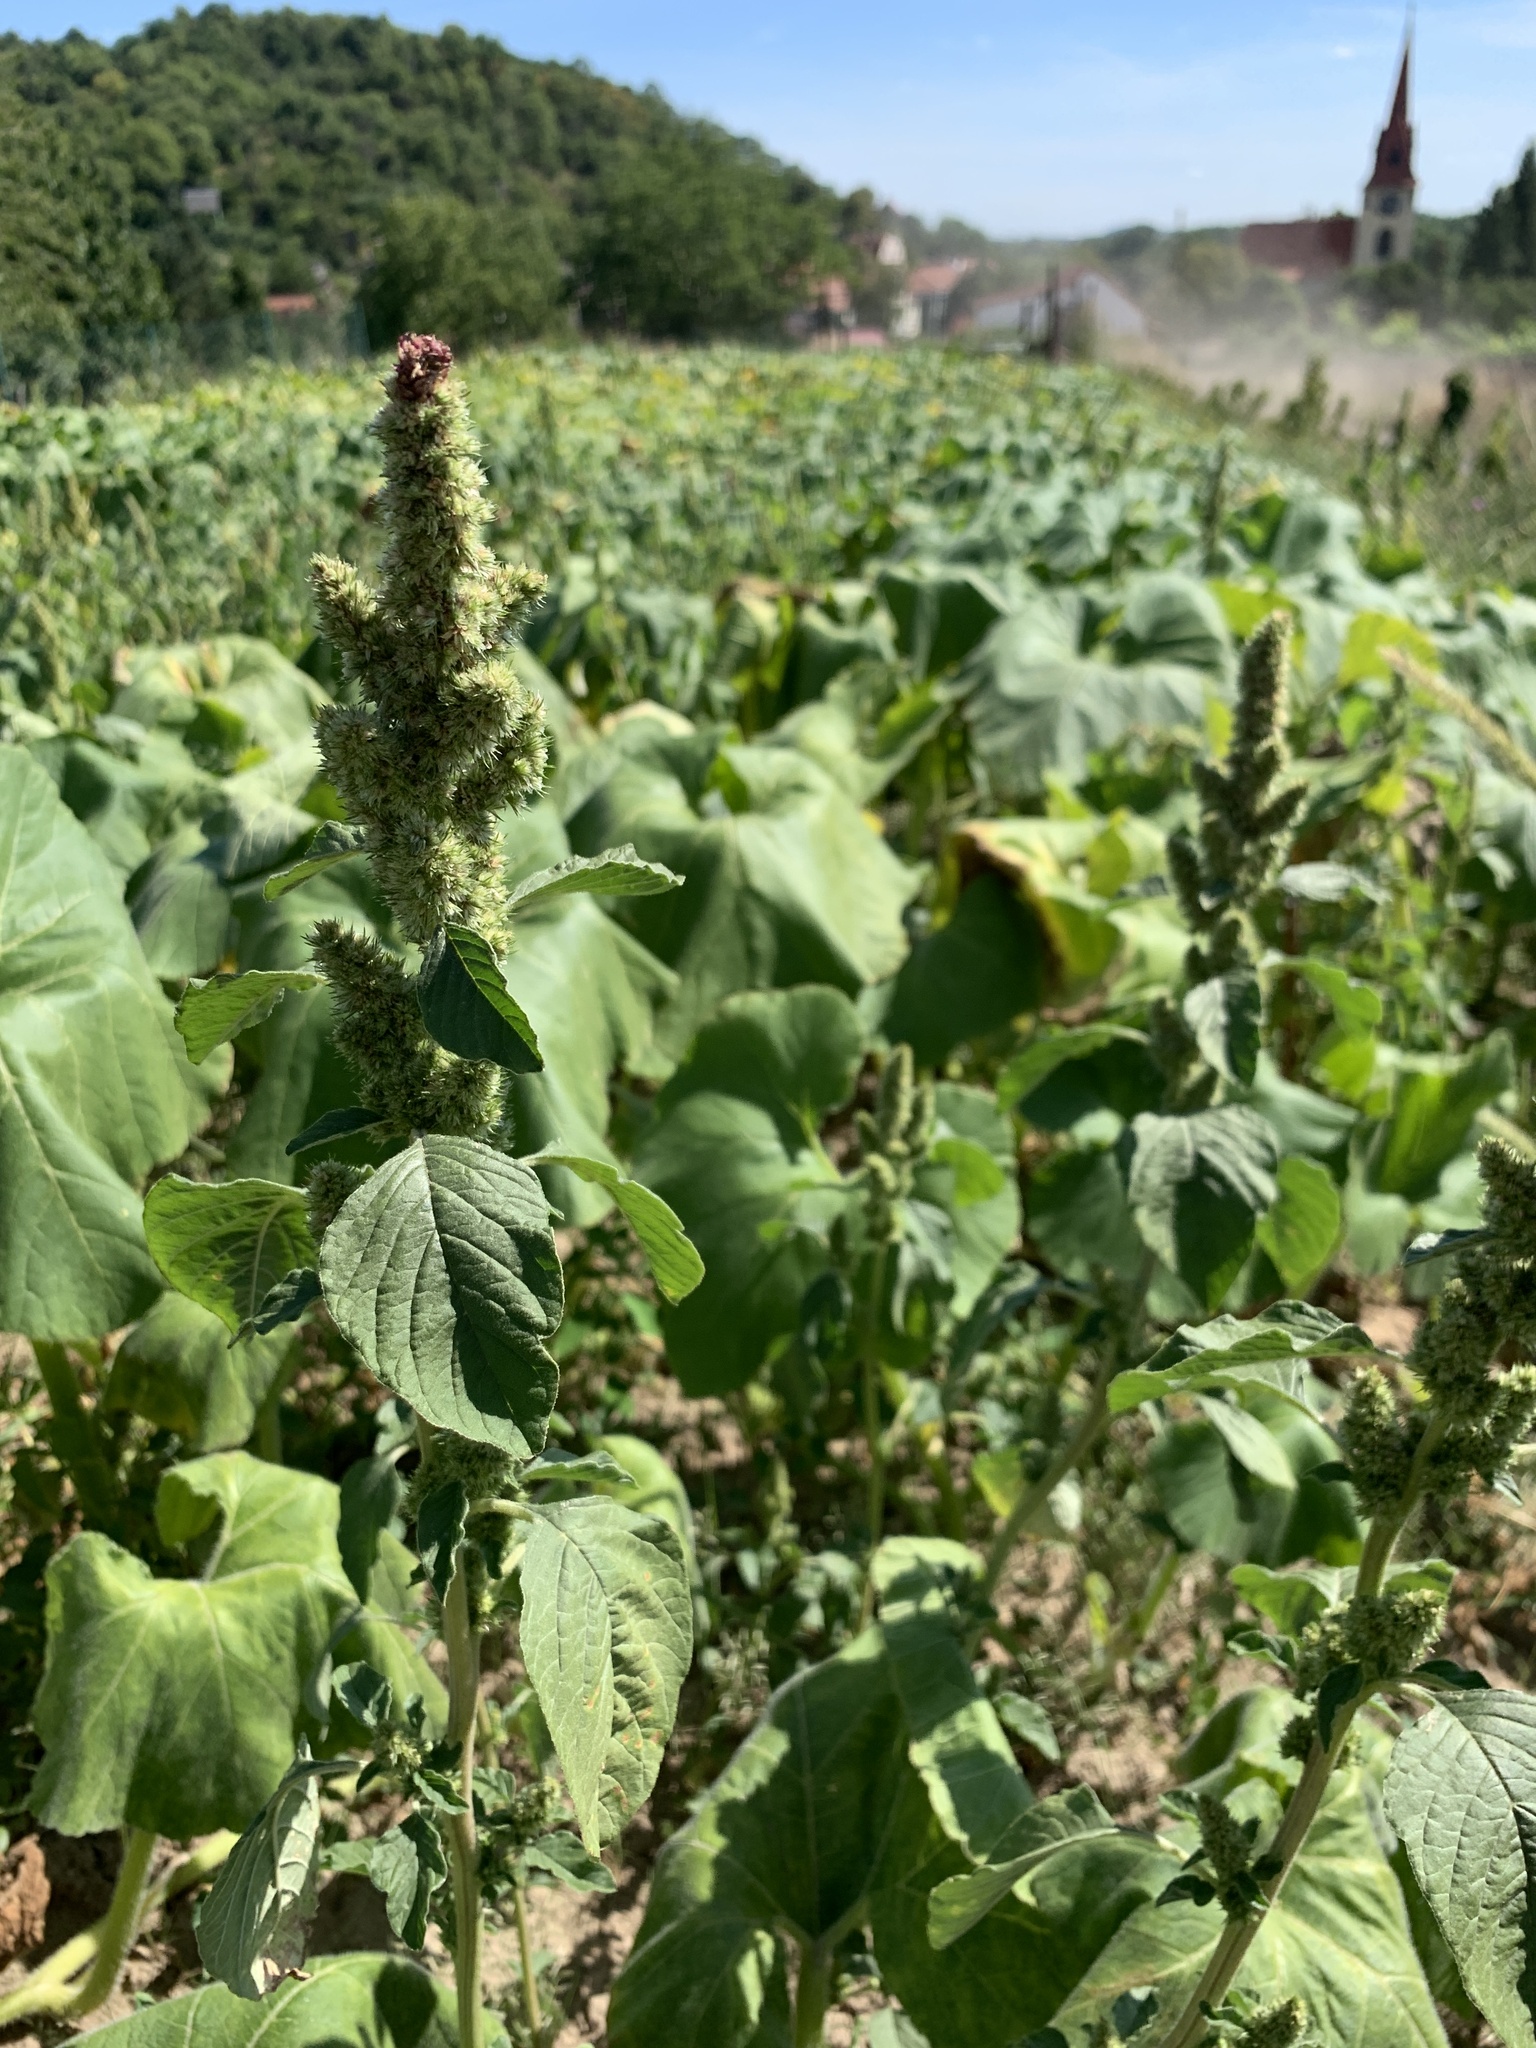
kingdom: Plantae
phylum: Tracheophyta
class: Magnoliopsida
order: Caryophyllales
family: Amaranthaceae
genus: Amaranthus
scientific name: Amaranthus retroflexus
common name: Redroot amaranth
